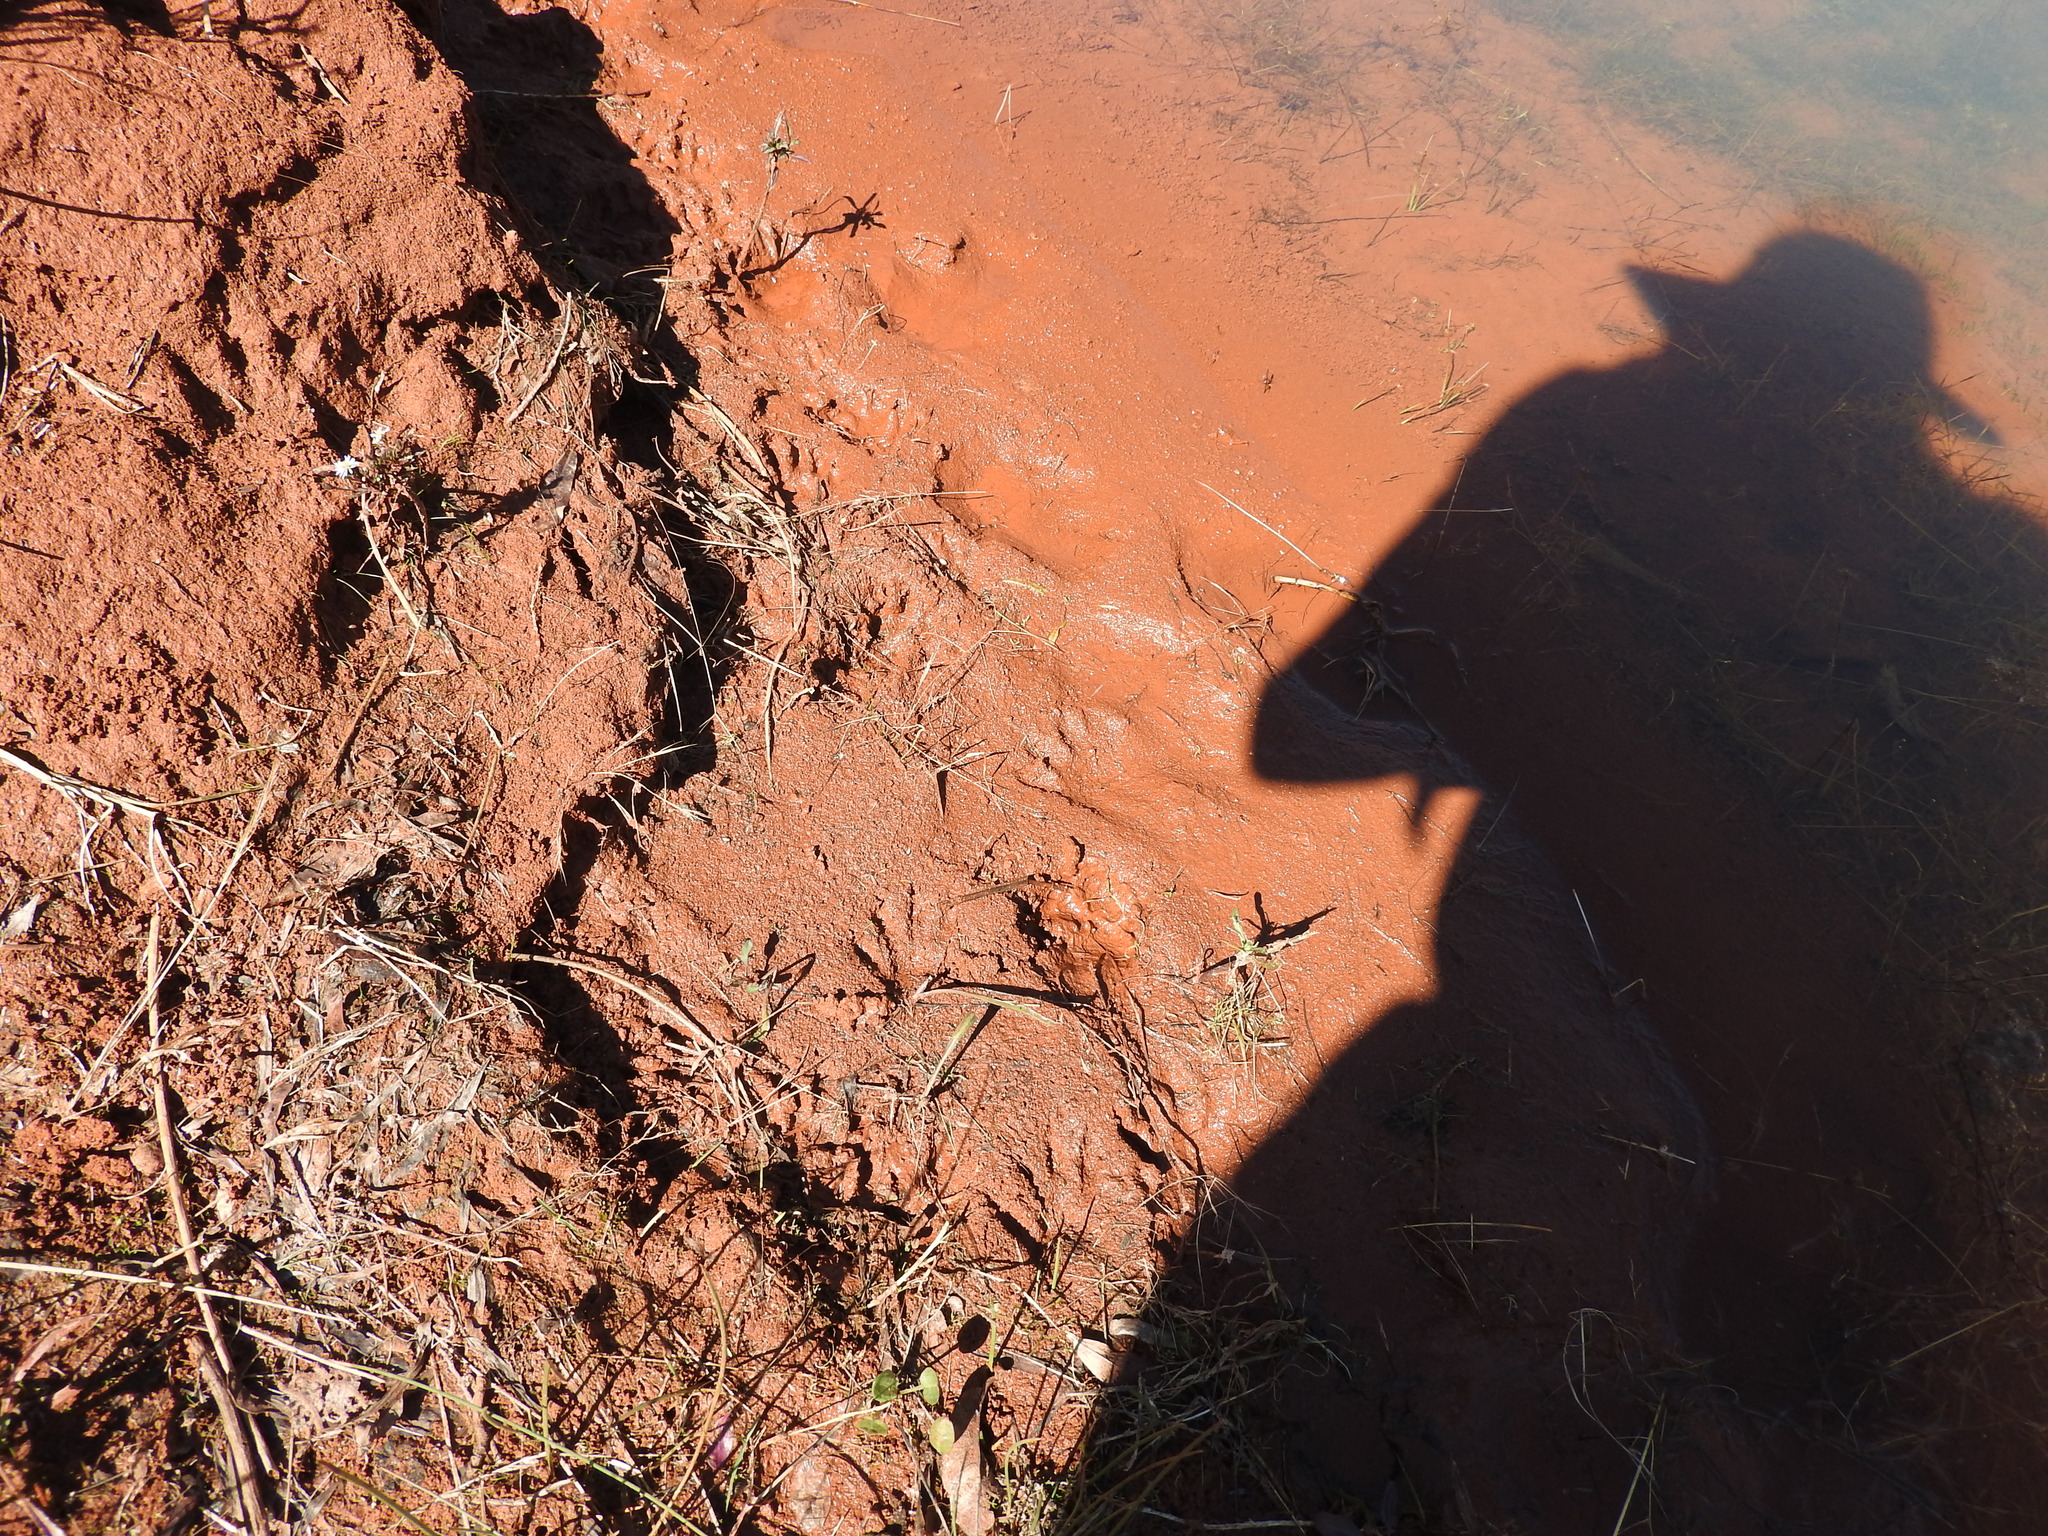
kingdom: Animalia
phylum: Chordata
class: Mammalia
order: Carnivora
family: Procyonidae
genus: Procyon
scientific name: Procyon lotor
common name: Raccoon
